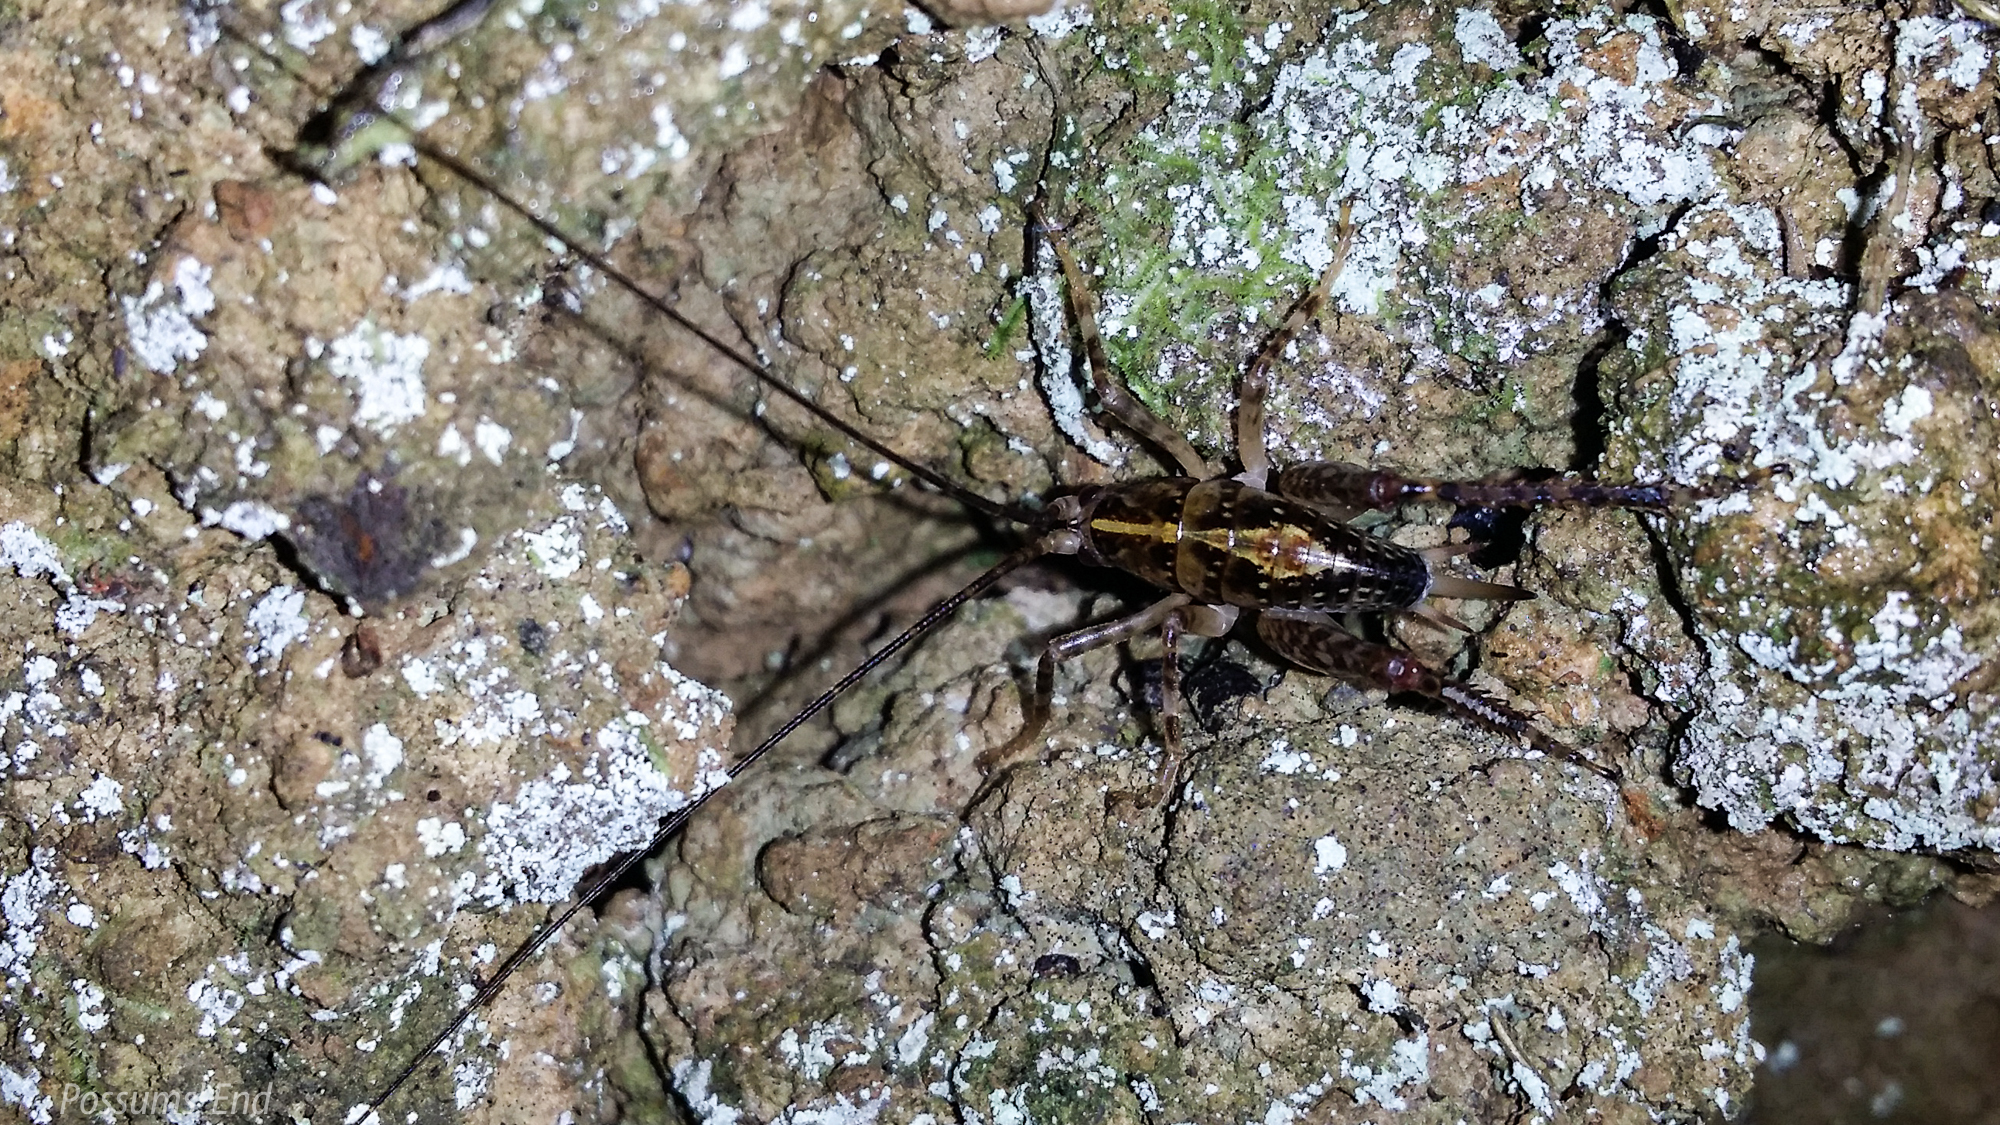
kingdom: Animalia
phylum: Arthropoda
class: Insecta
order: Orthoptera
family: Rhaphidophoridae
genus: Talitropsis
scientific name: Talitropsis sedilloti
